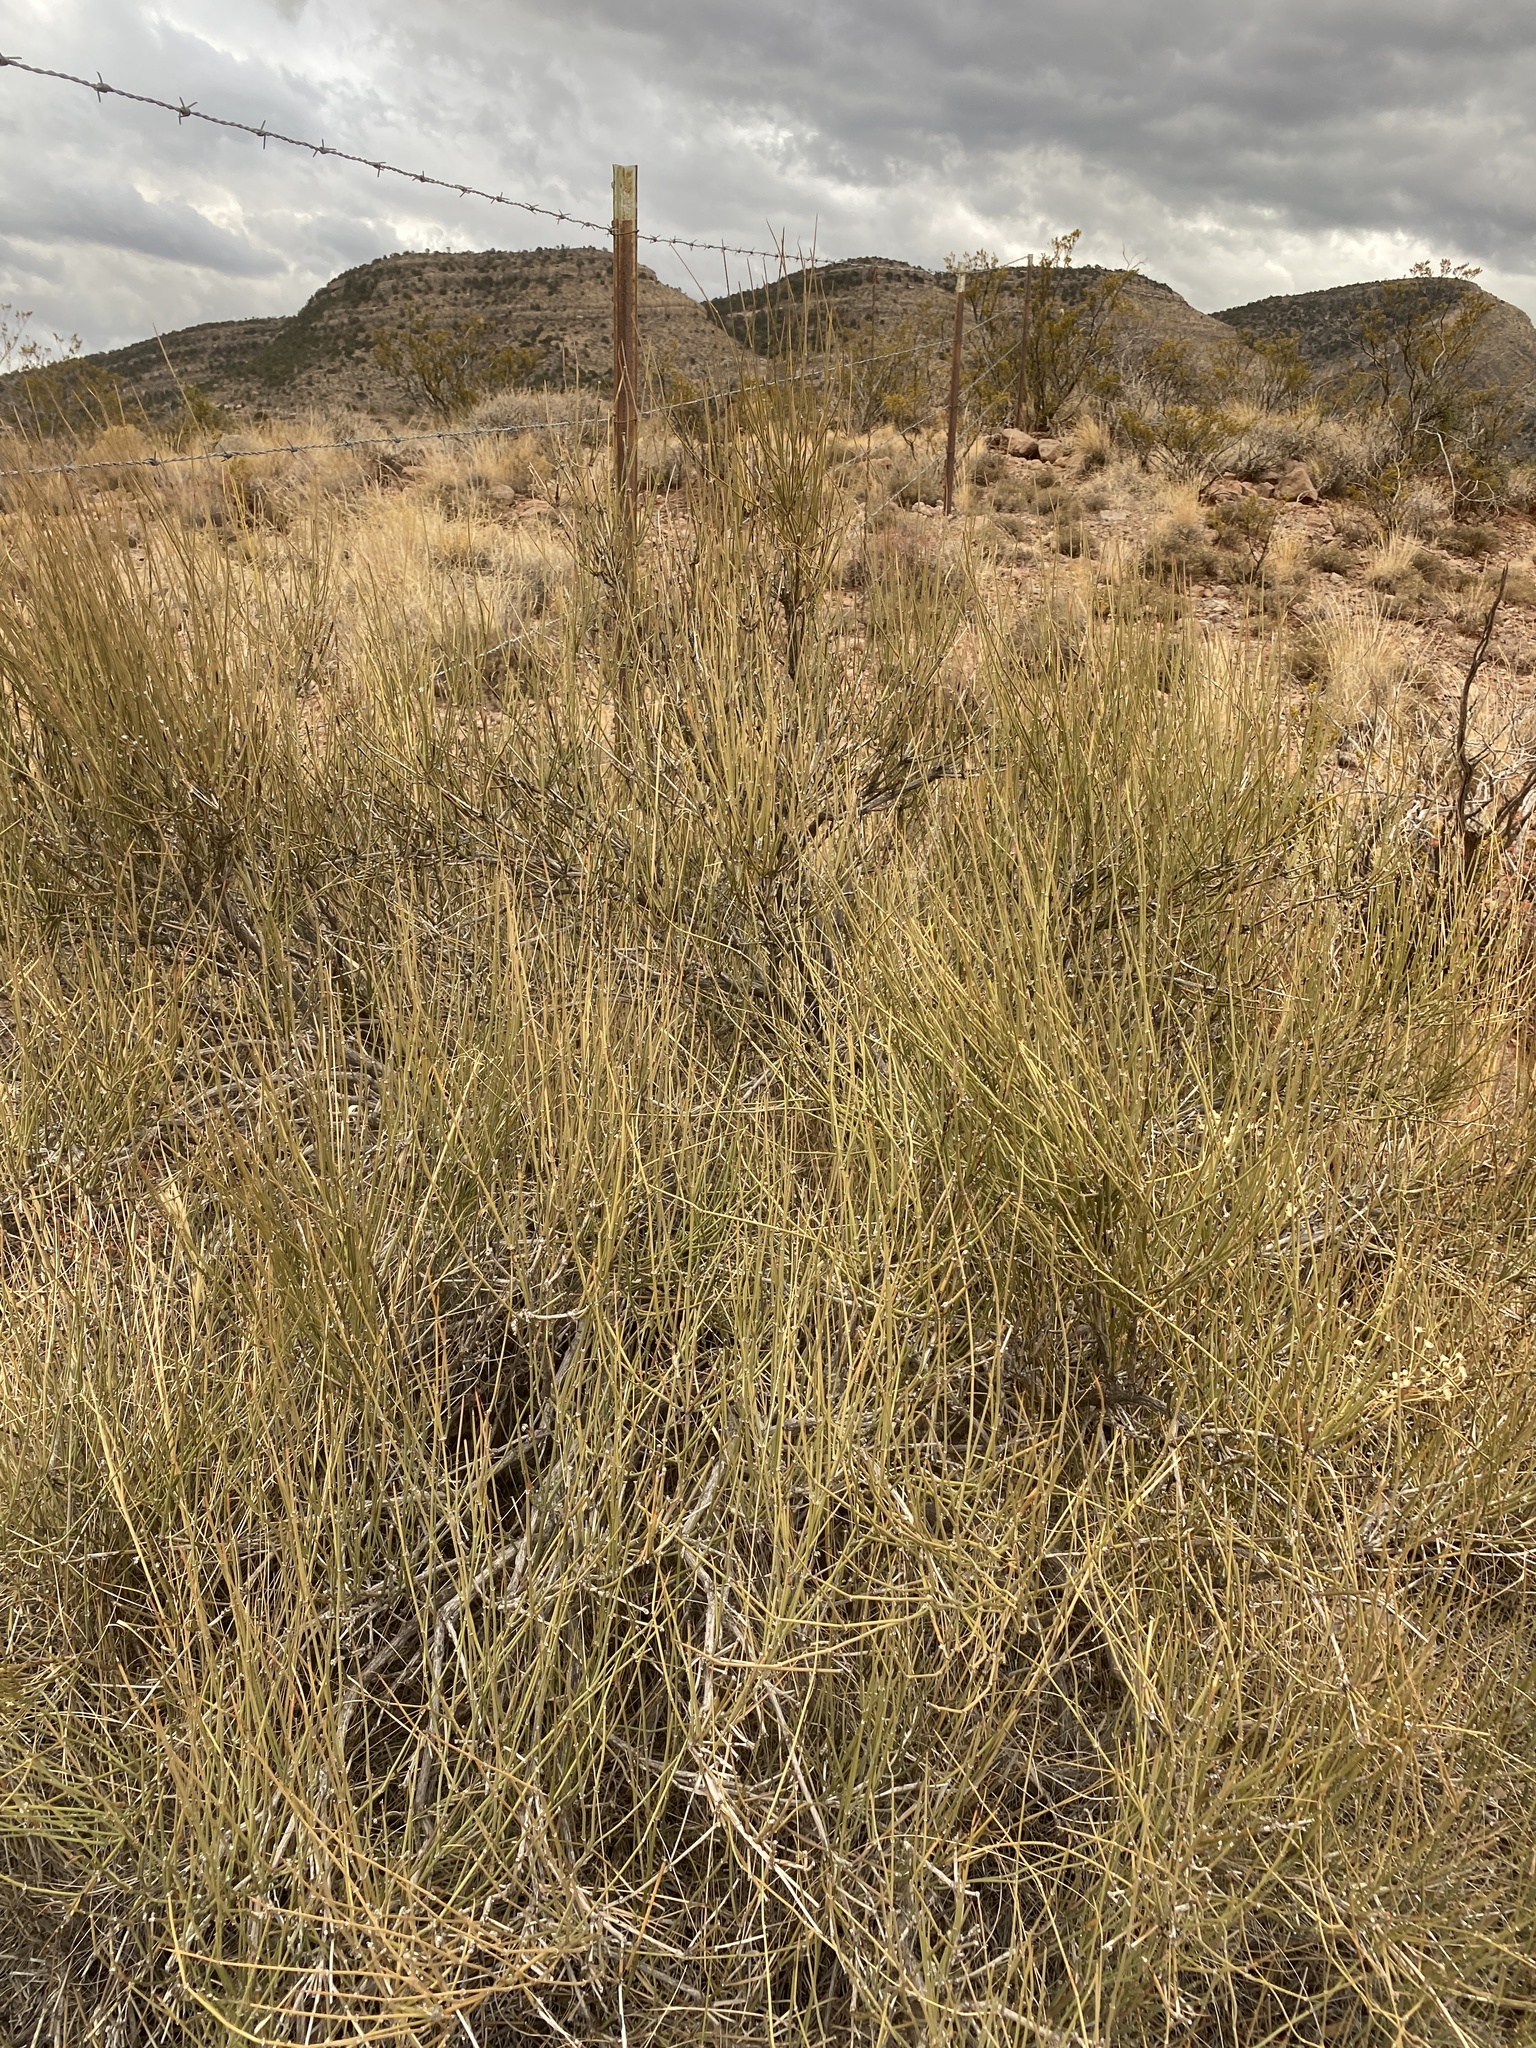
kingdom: Plantae
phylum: Tracheophyta
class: Gnetopsida
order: Ephedrales
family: Ephedraceae
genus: Ephedra
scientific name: Ephedra trifurca
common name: Mexican-tea
